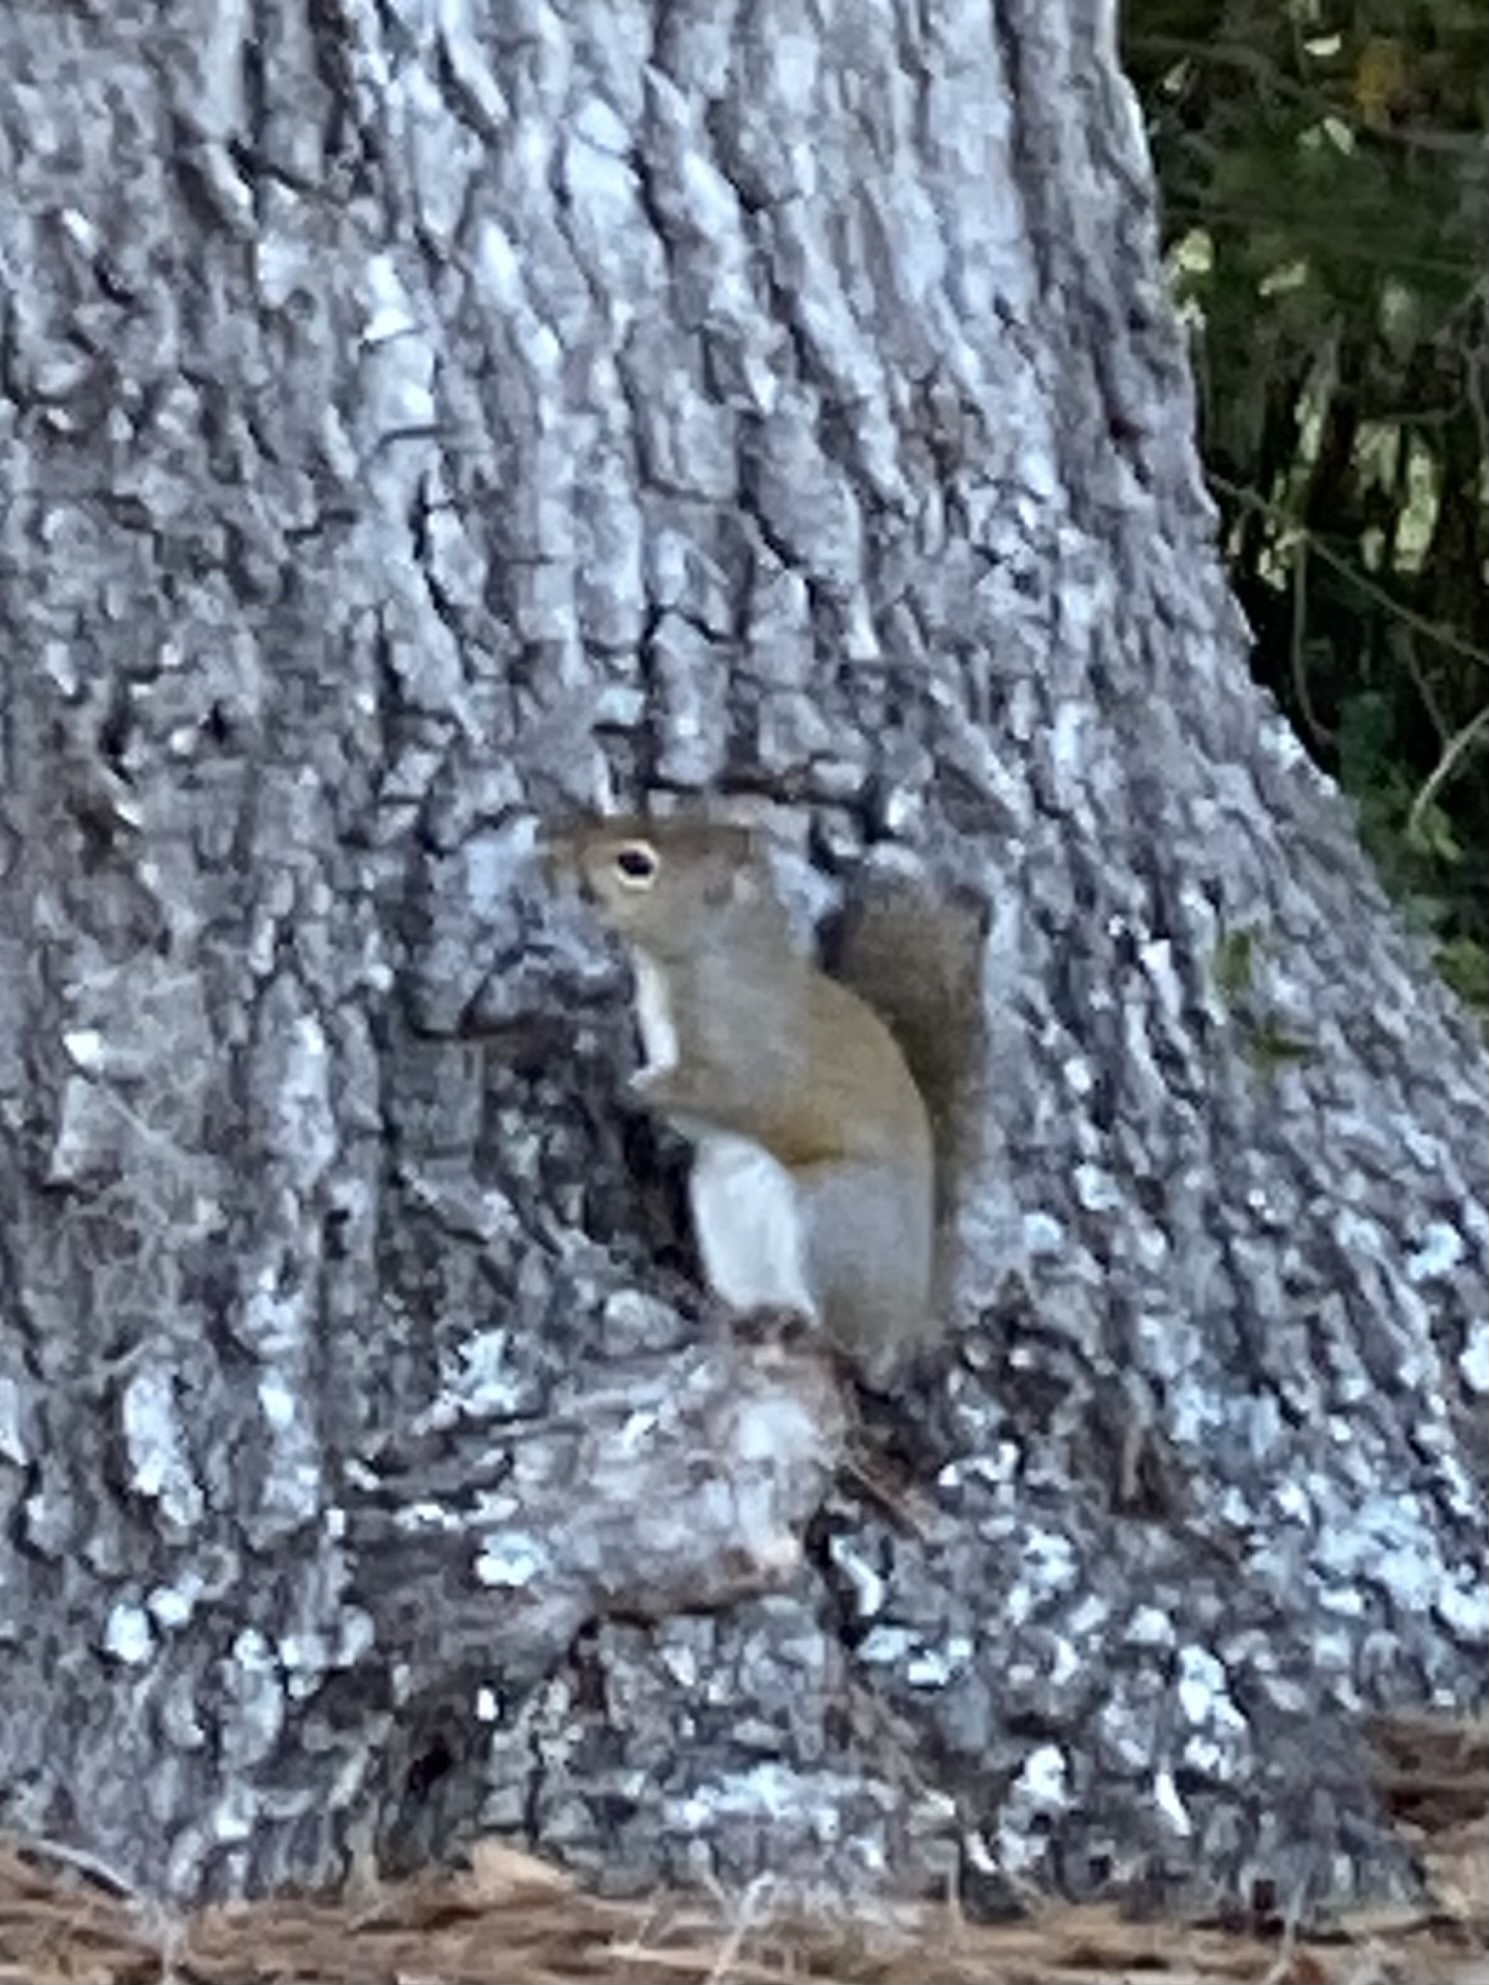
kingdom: Animalia
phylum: Chordata
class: Mammalia
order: Rodentia
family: Sciuridae
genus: Sciurus
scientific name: Sciurus carolinensis
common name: Eastern gray squirrel
